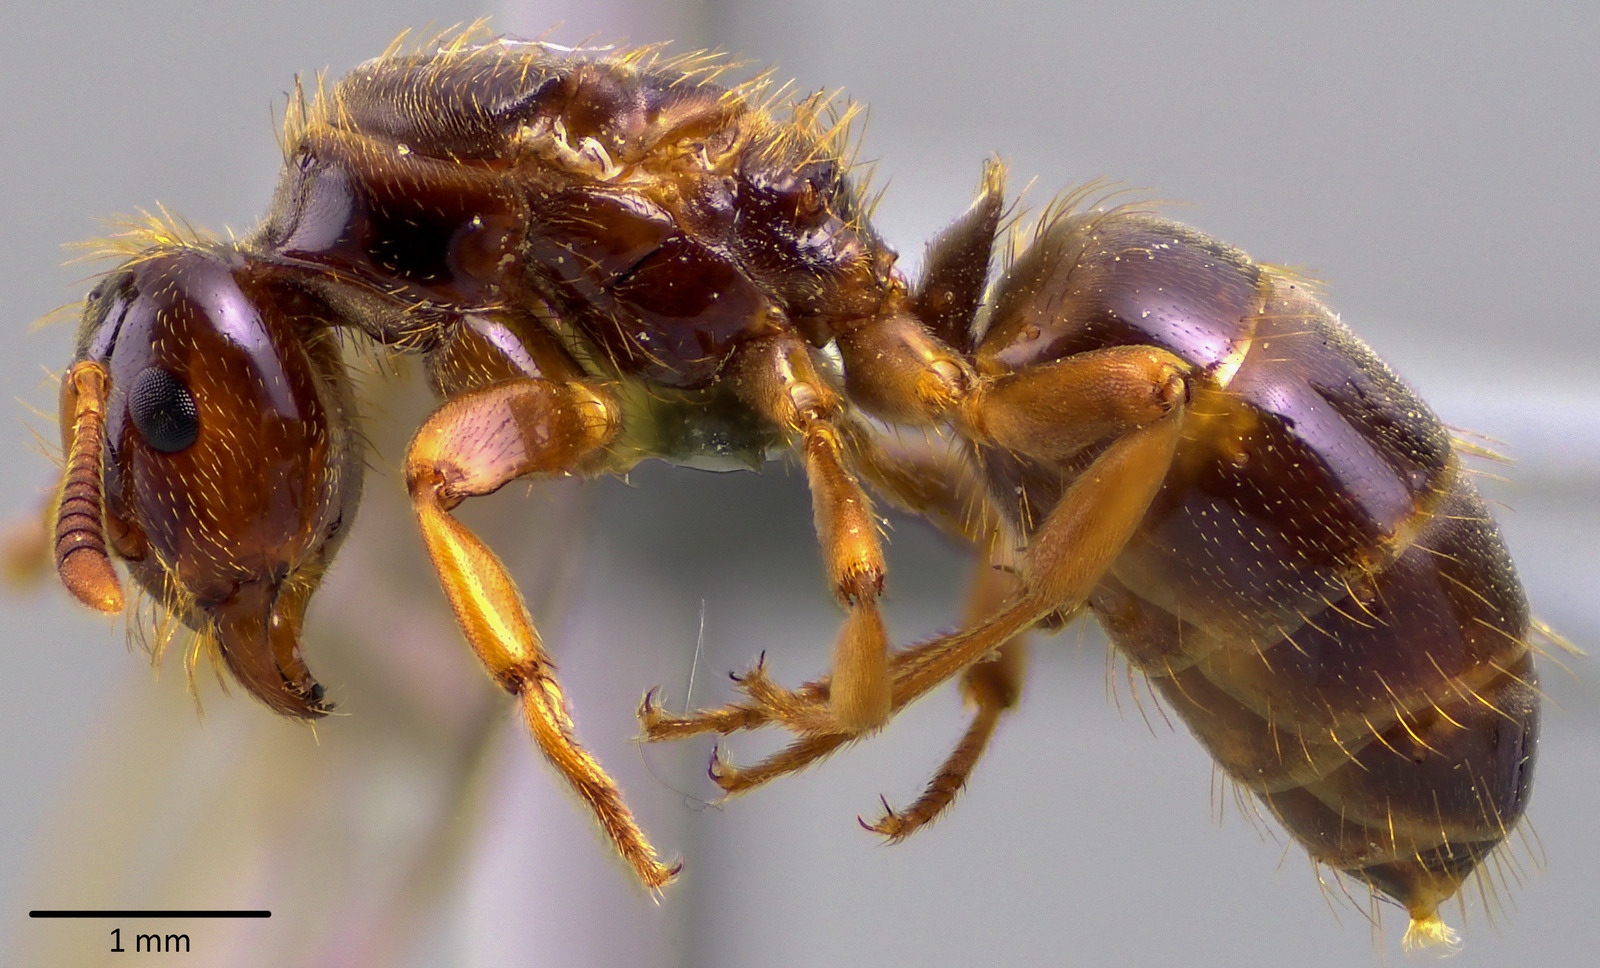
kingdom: Animalia
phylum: Arthropoda
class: Insecta
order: Hymenoptera
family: Formicidae
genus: Lasius
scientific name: Lasius claviger
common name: Common citronella ant
